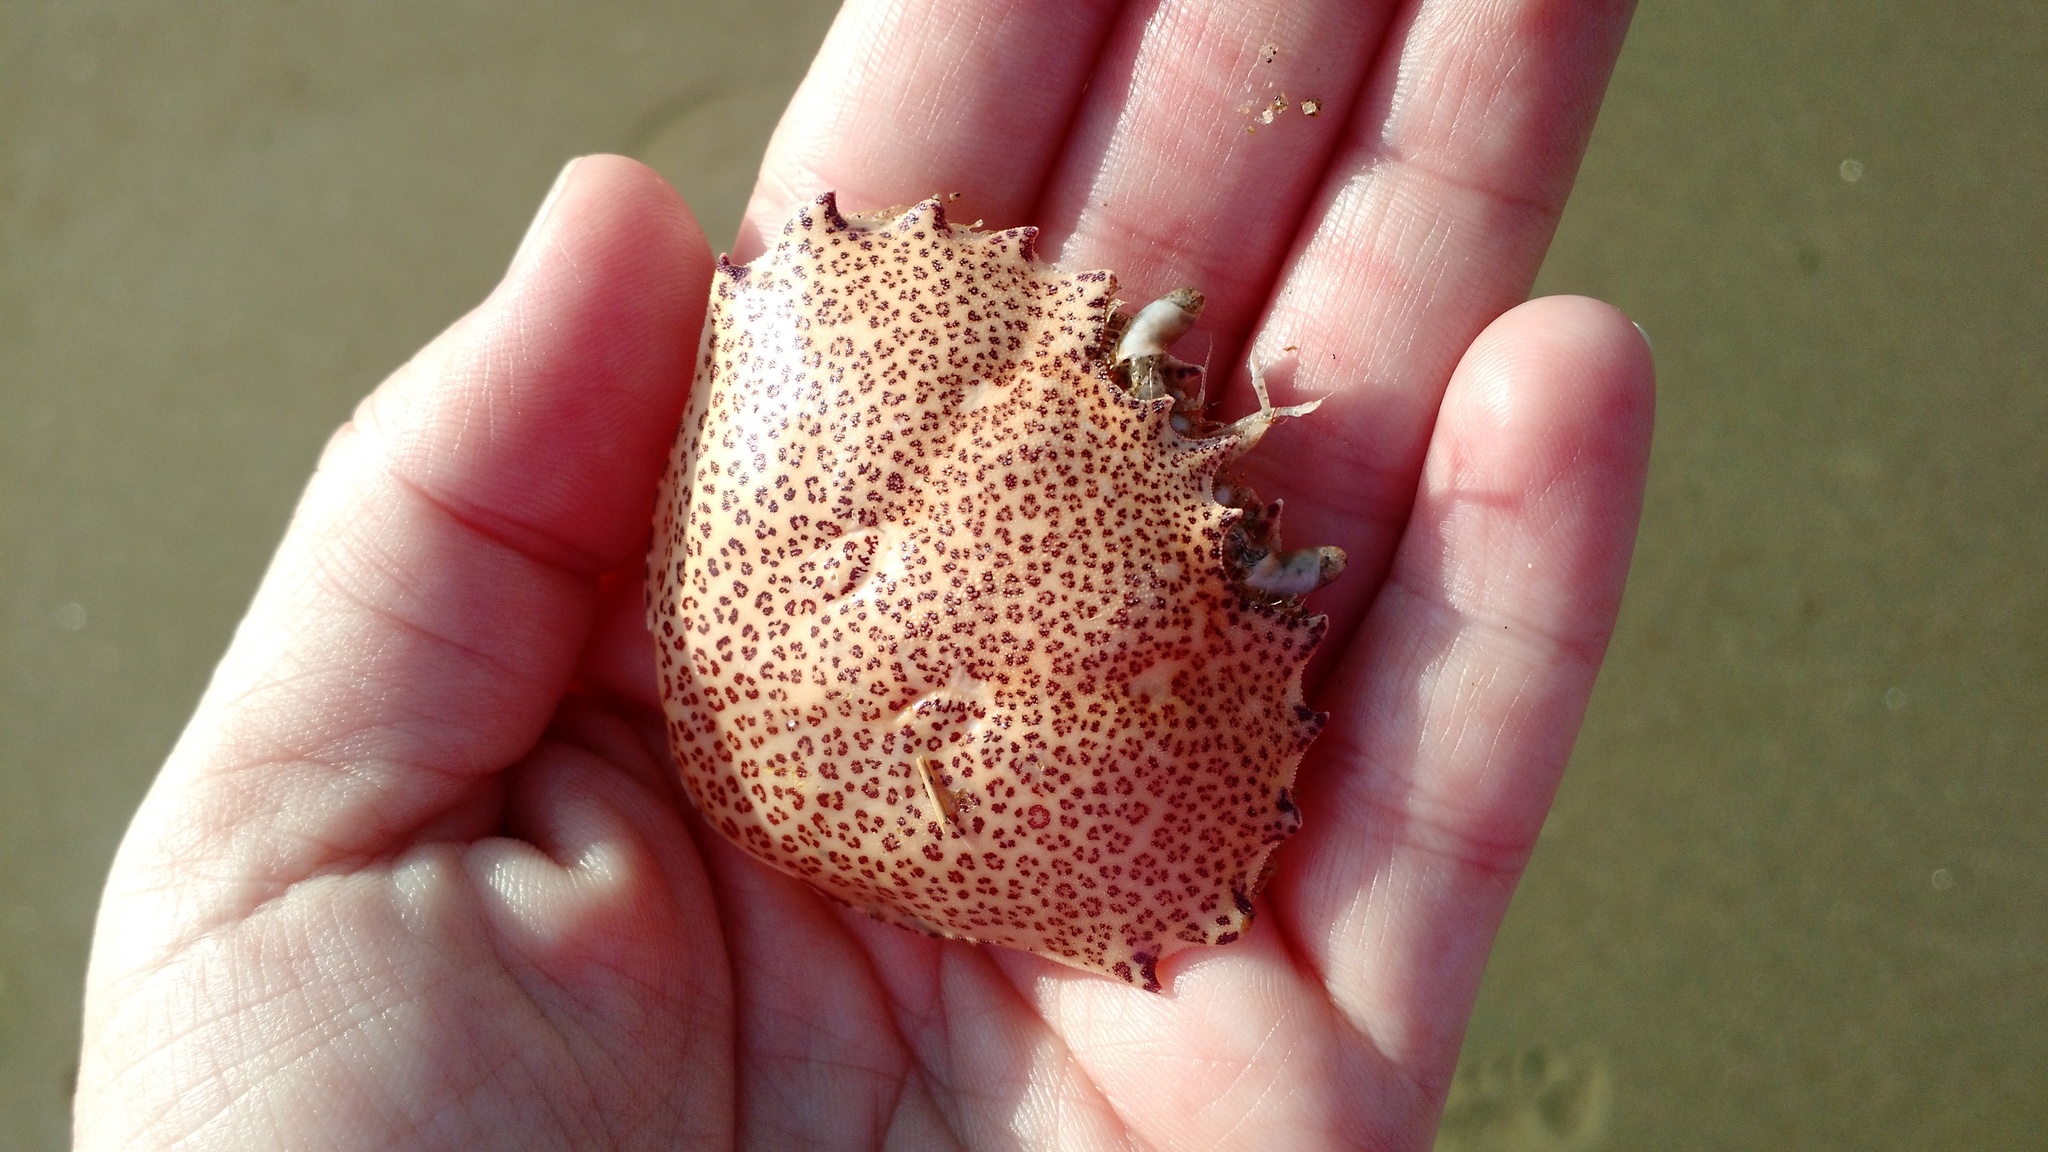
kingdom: Animalia
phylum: Arthropoda
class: Malacostraca
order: Decapoda
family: Ovalipidae
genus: Ovalipes
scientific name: Ovalipes ocellatus
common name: Lady crab
